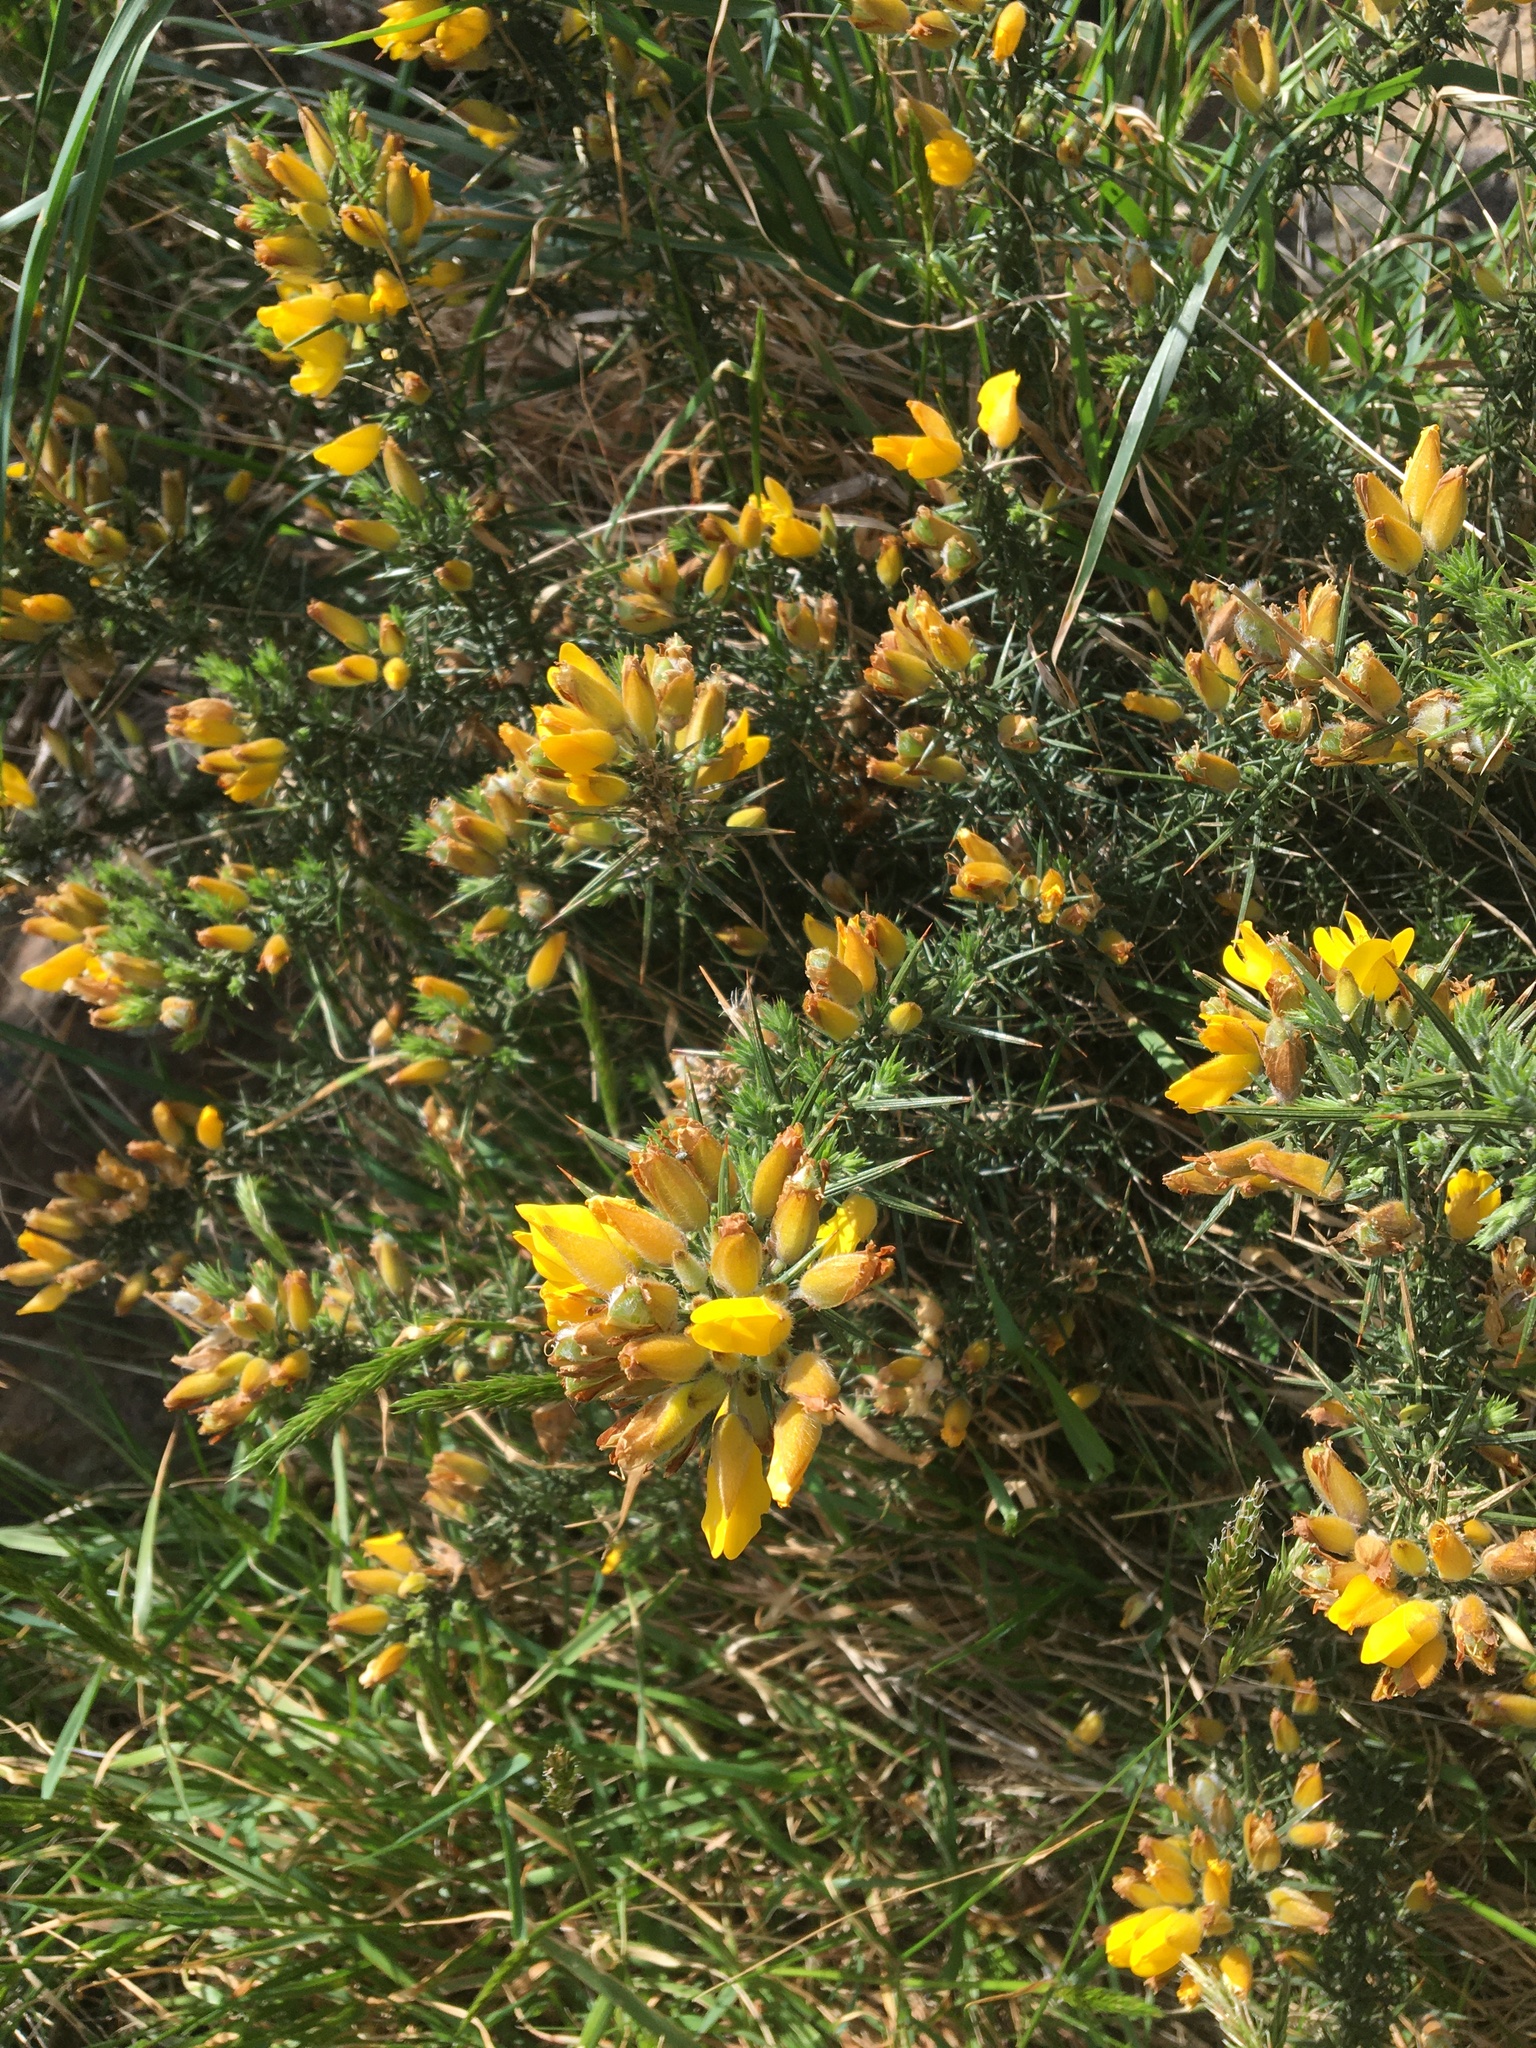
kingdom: Plantae
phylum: Tracheophyta
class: Magnoliopsida
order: Fabales
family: Fabaceae
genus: Ulex
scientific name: Ulex europaeus
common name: Common gorse
